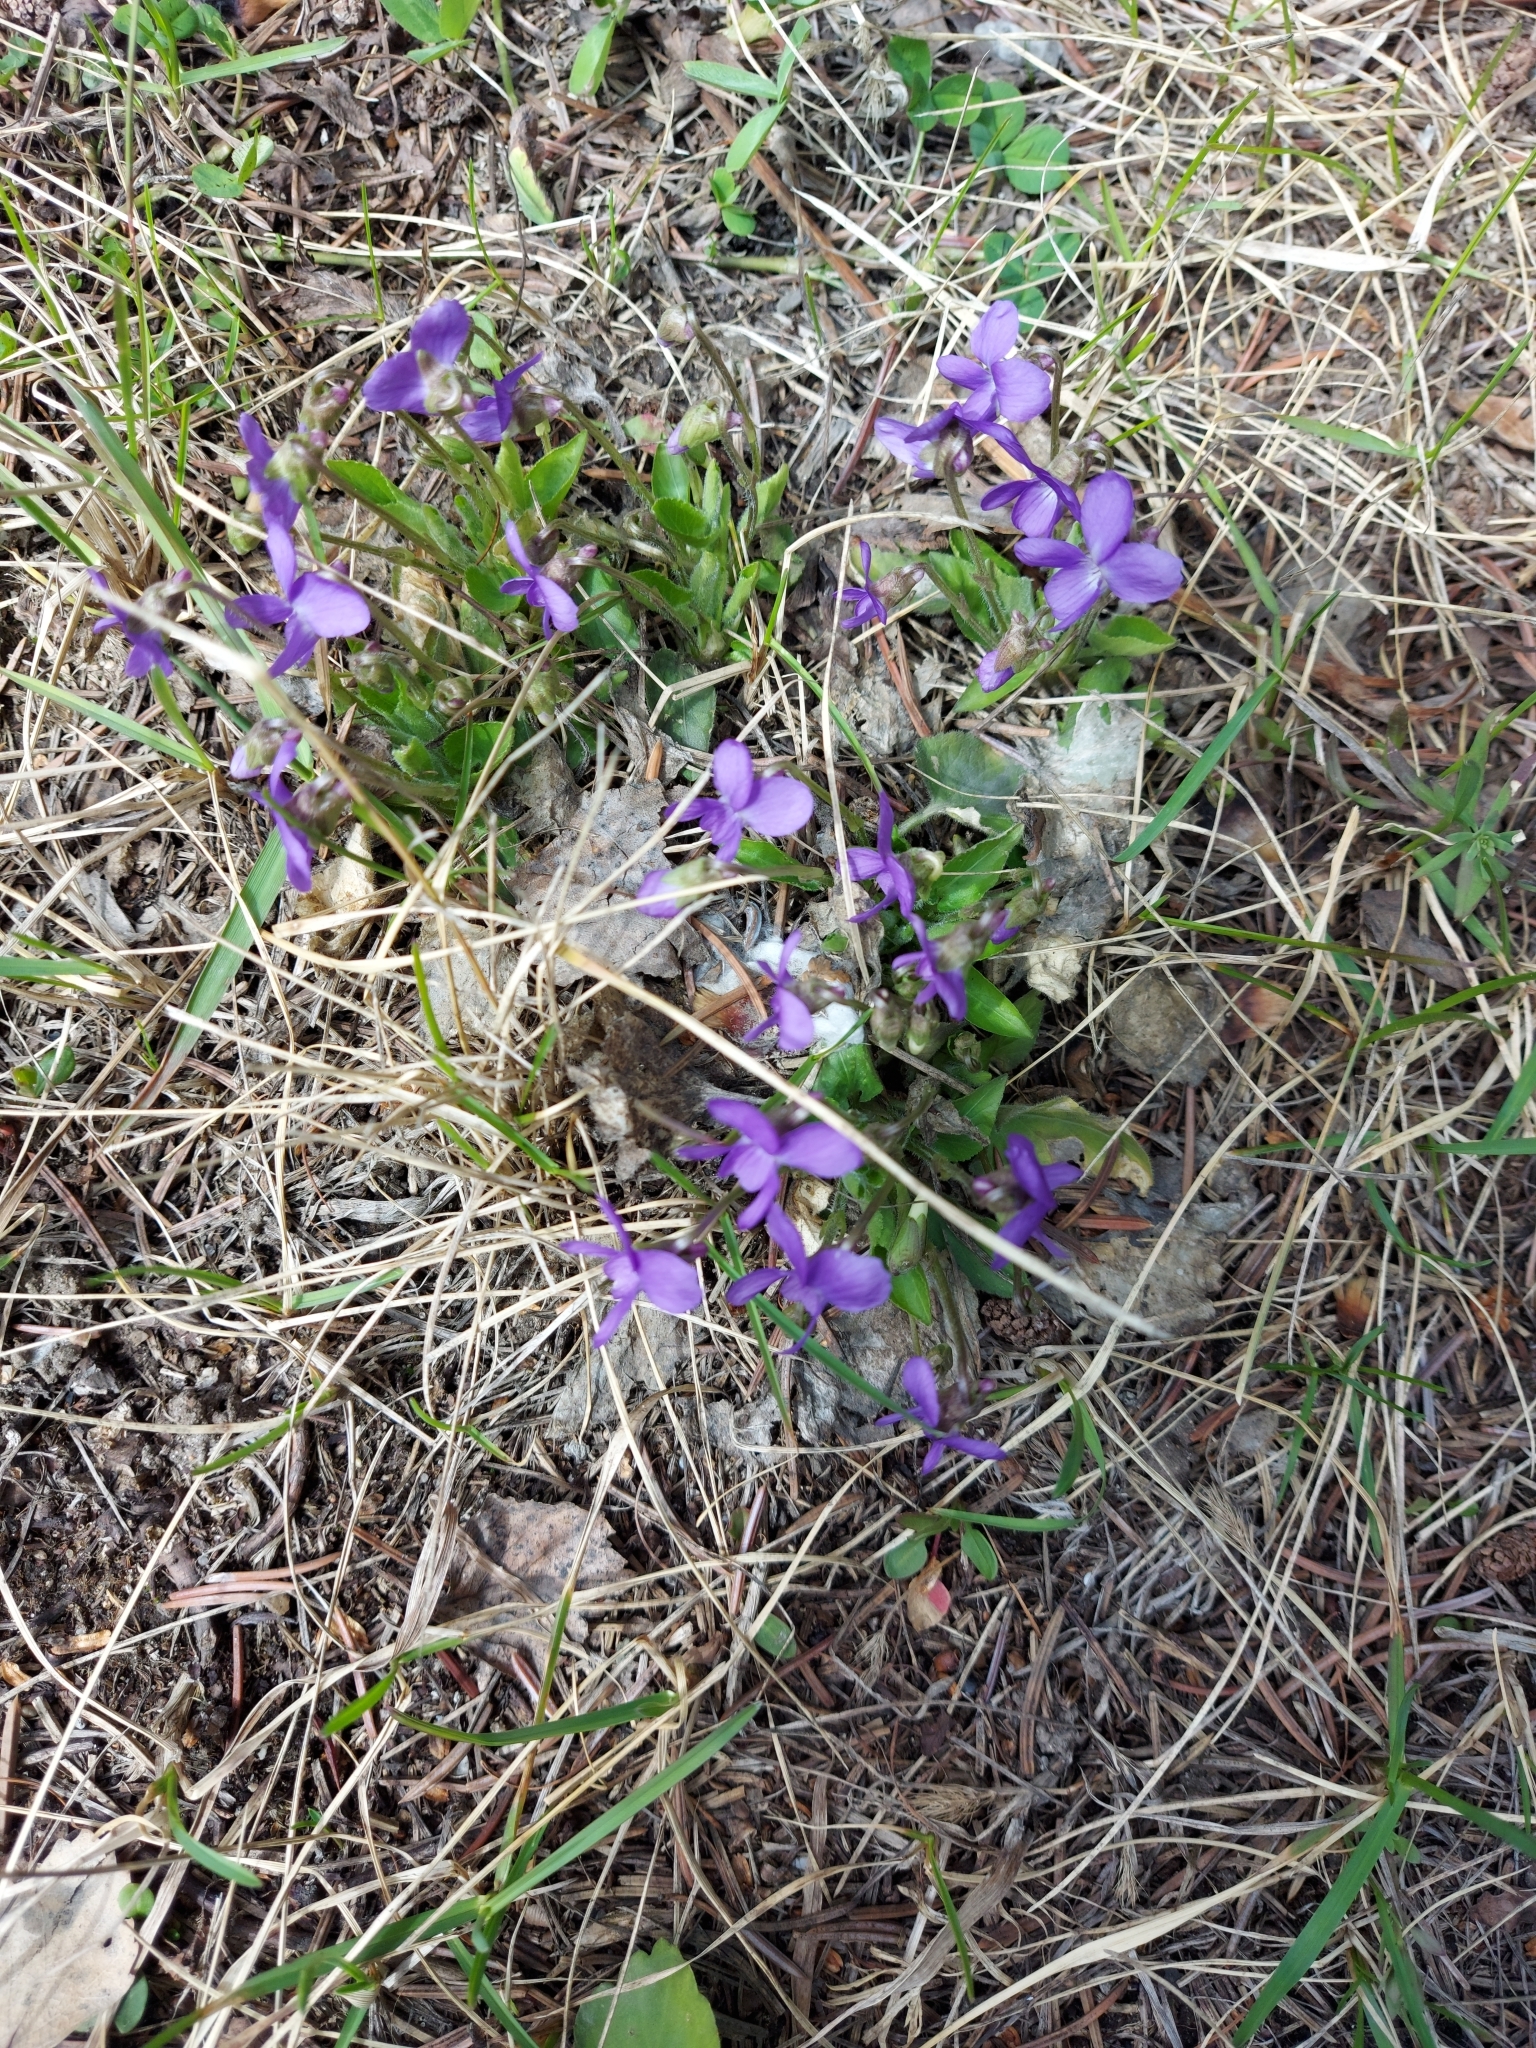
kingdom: Plantae
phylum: Tracheophyta
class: Magnoliopsida
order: Malpighiales
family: Violaceae
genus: Viola
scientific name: Viola hirta
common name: Hairy violet
